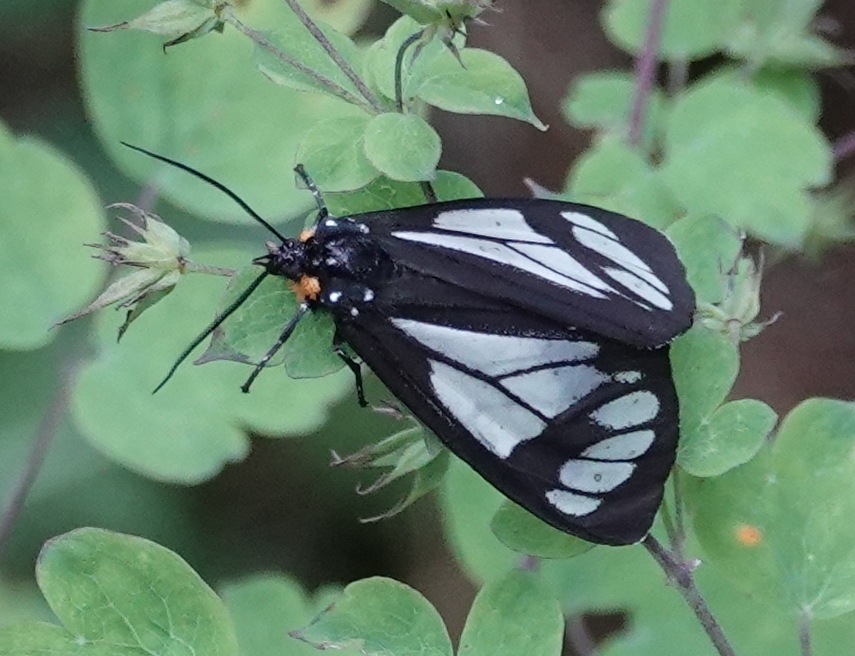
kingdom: Animalia
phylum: Arthropoda
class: Insecta
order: Lepidoptera
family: Erebidae
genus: Gnophaela
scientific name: Gnophaela vermiculata
